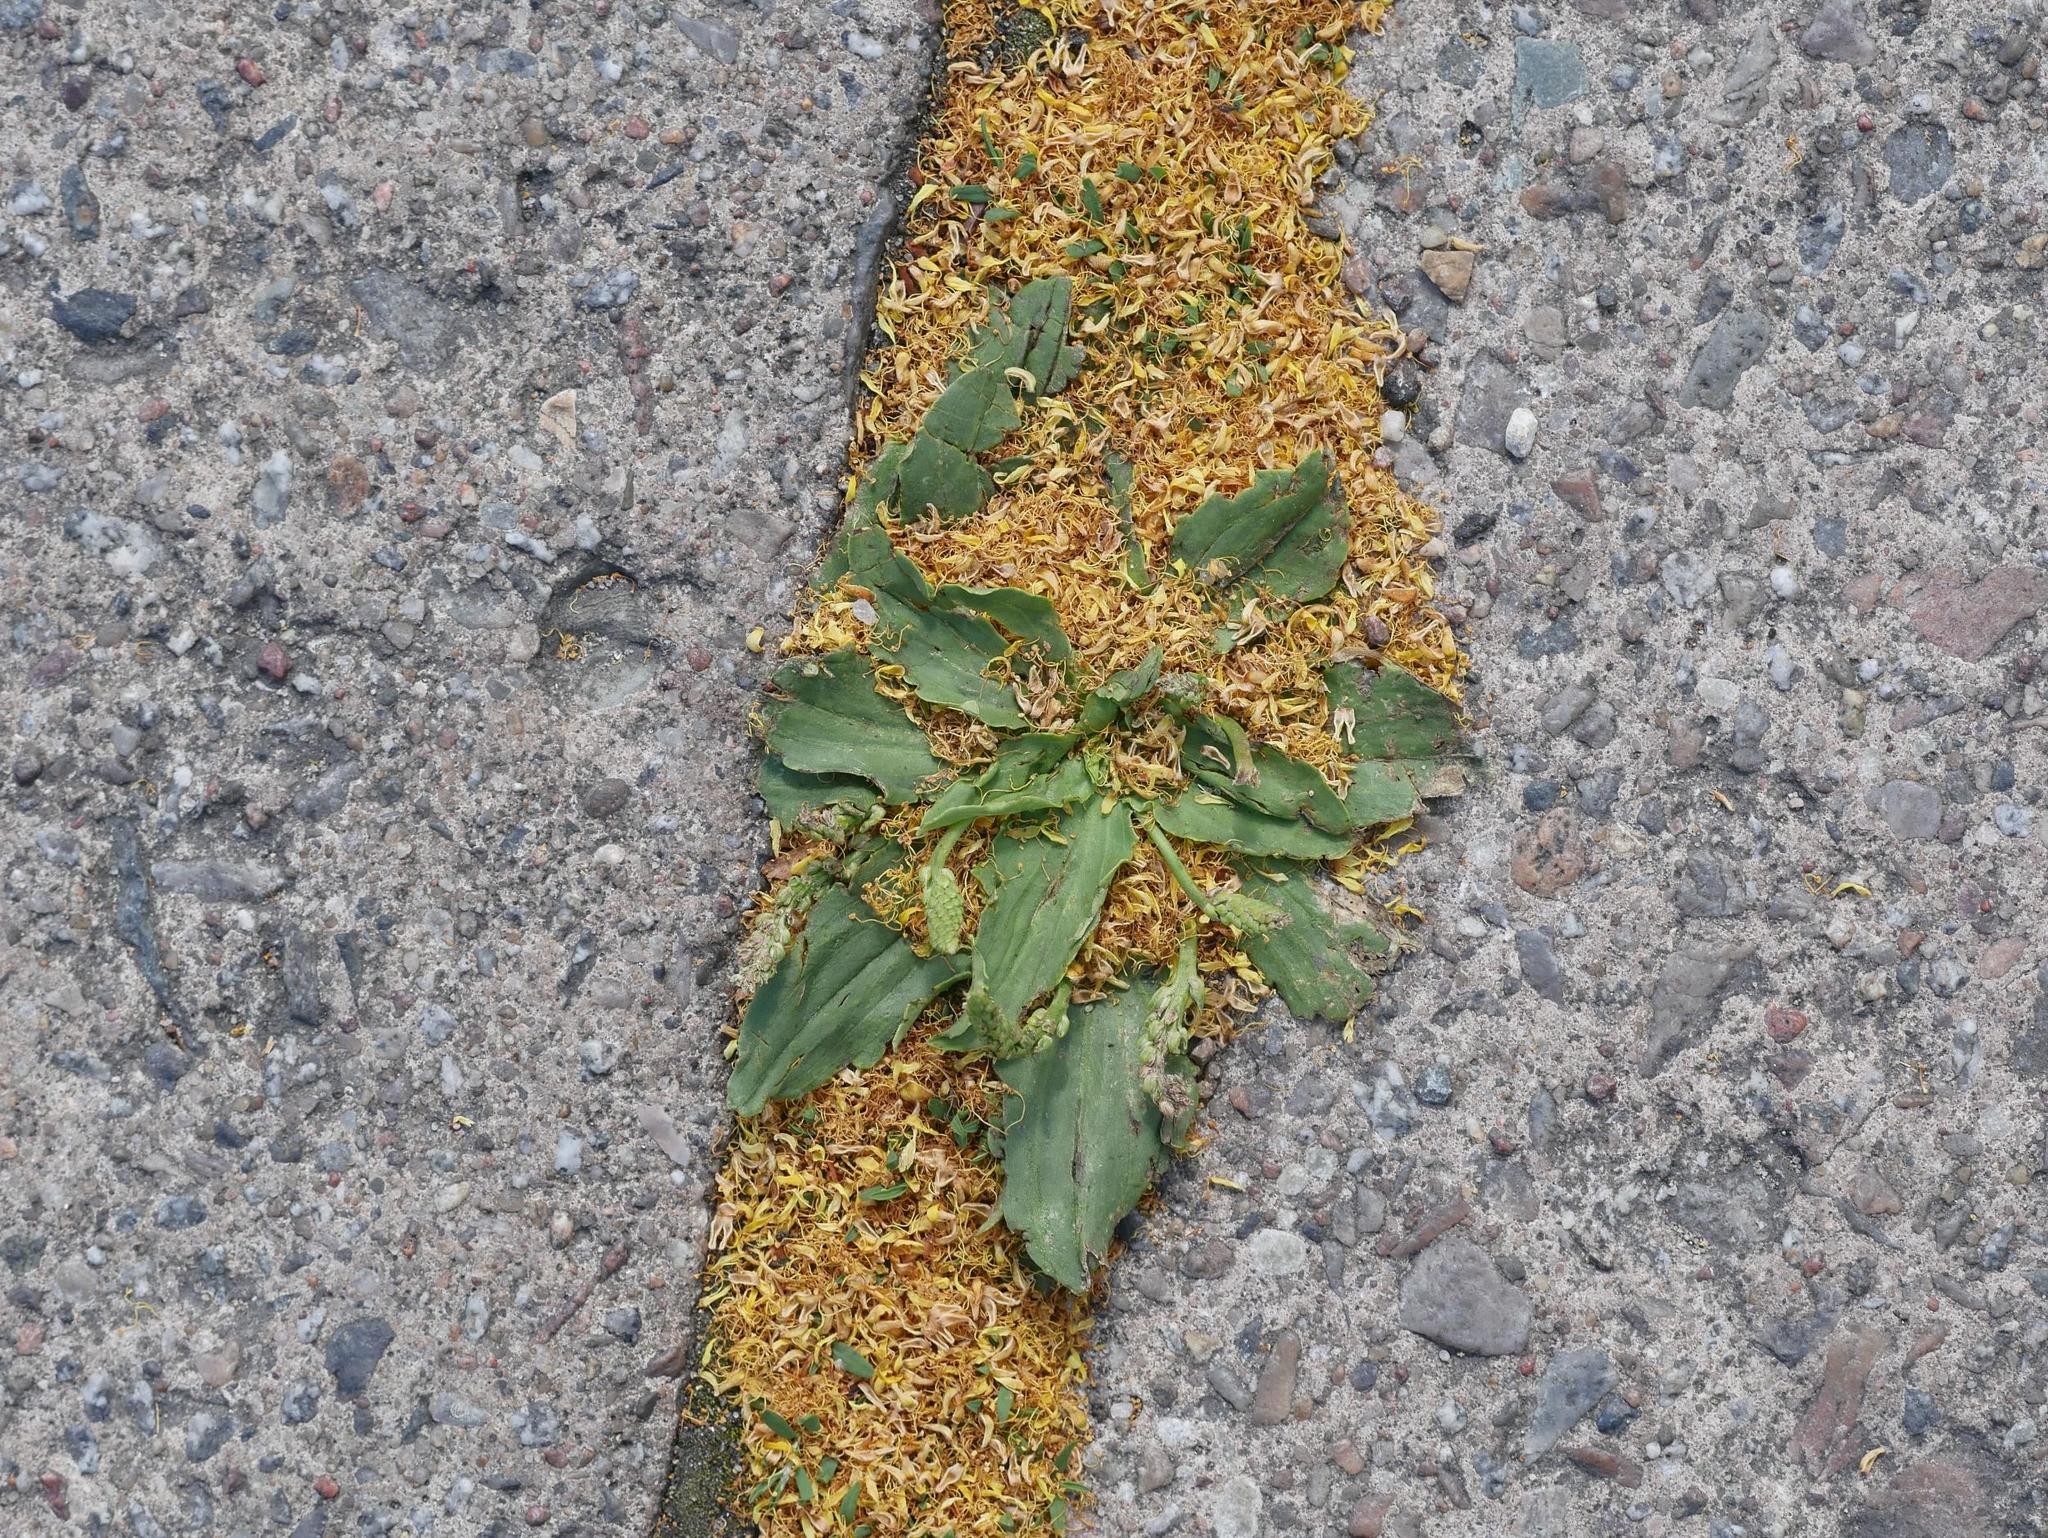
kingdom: Plantae
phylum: Tracheophyta
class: Magnoliopsida
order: Lamiales
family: Plantaginaceae
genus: Plantago
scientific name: Plantago major
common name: Common plantain
